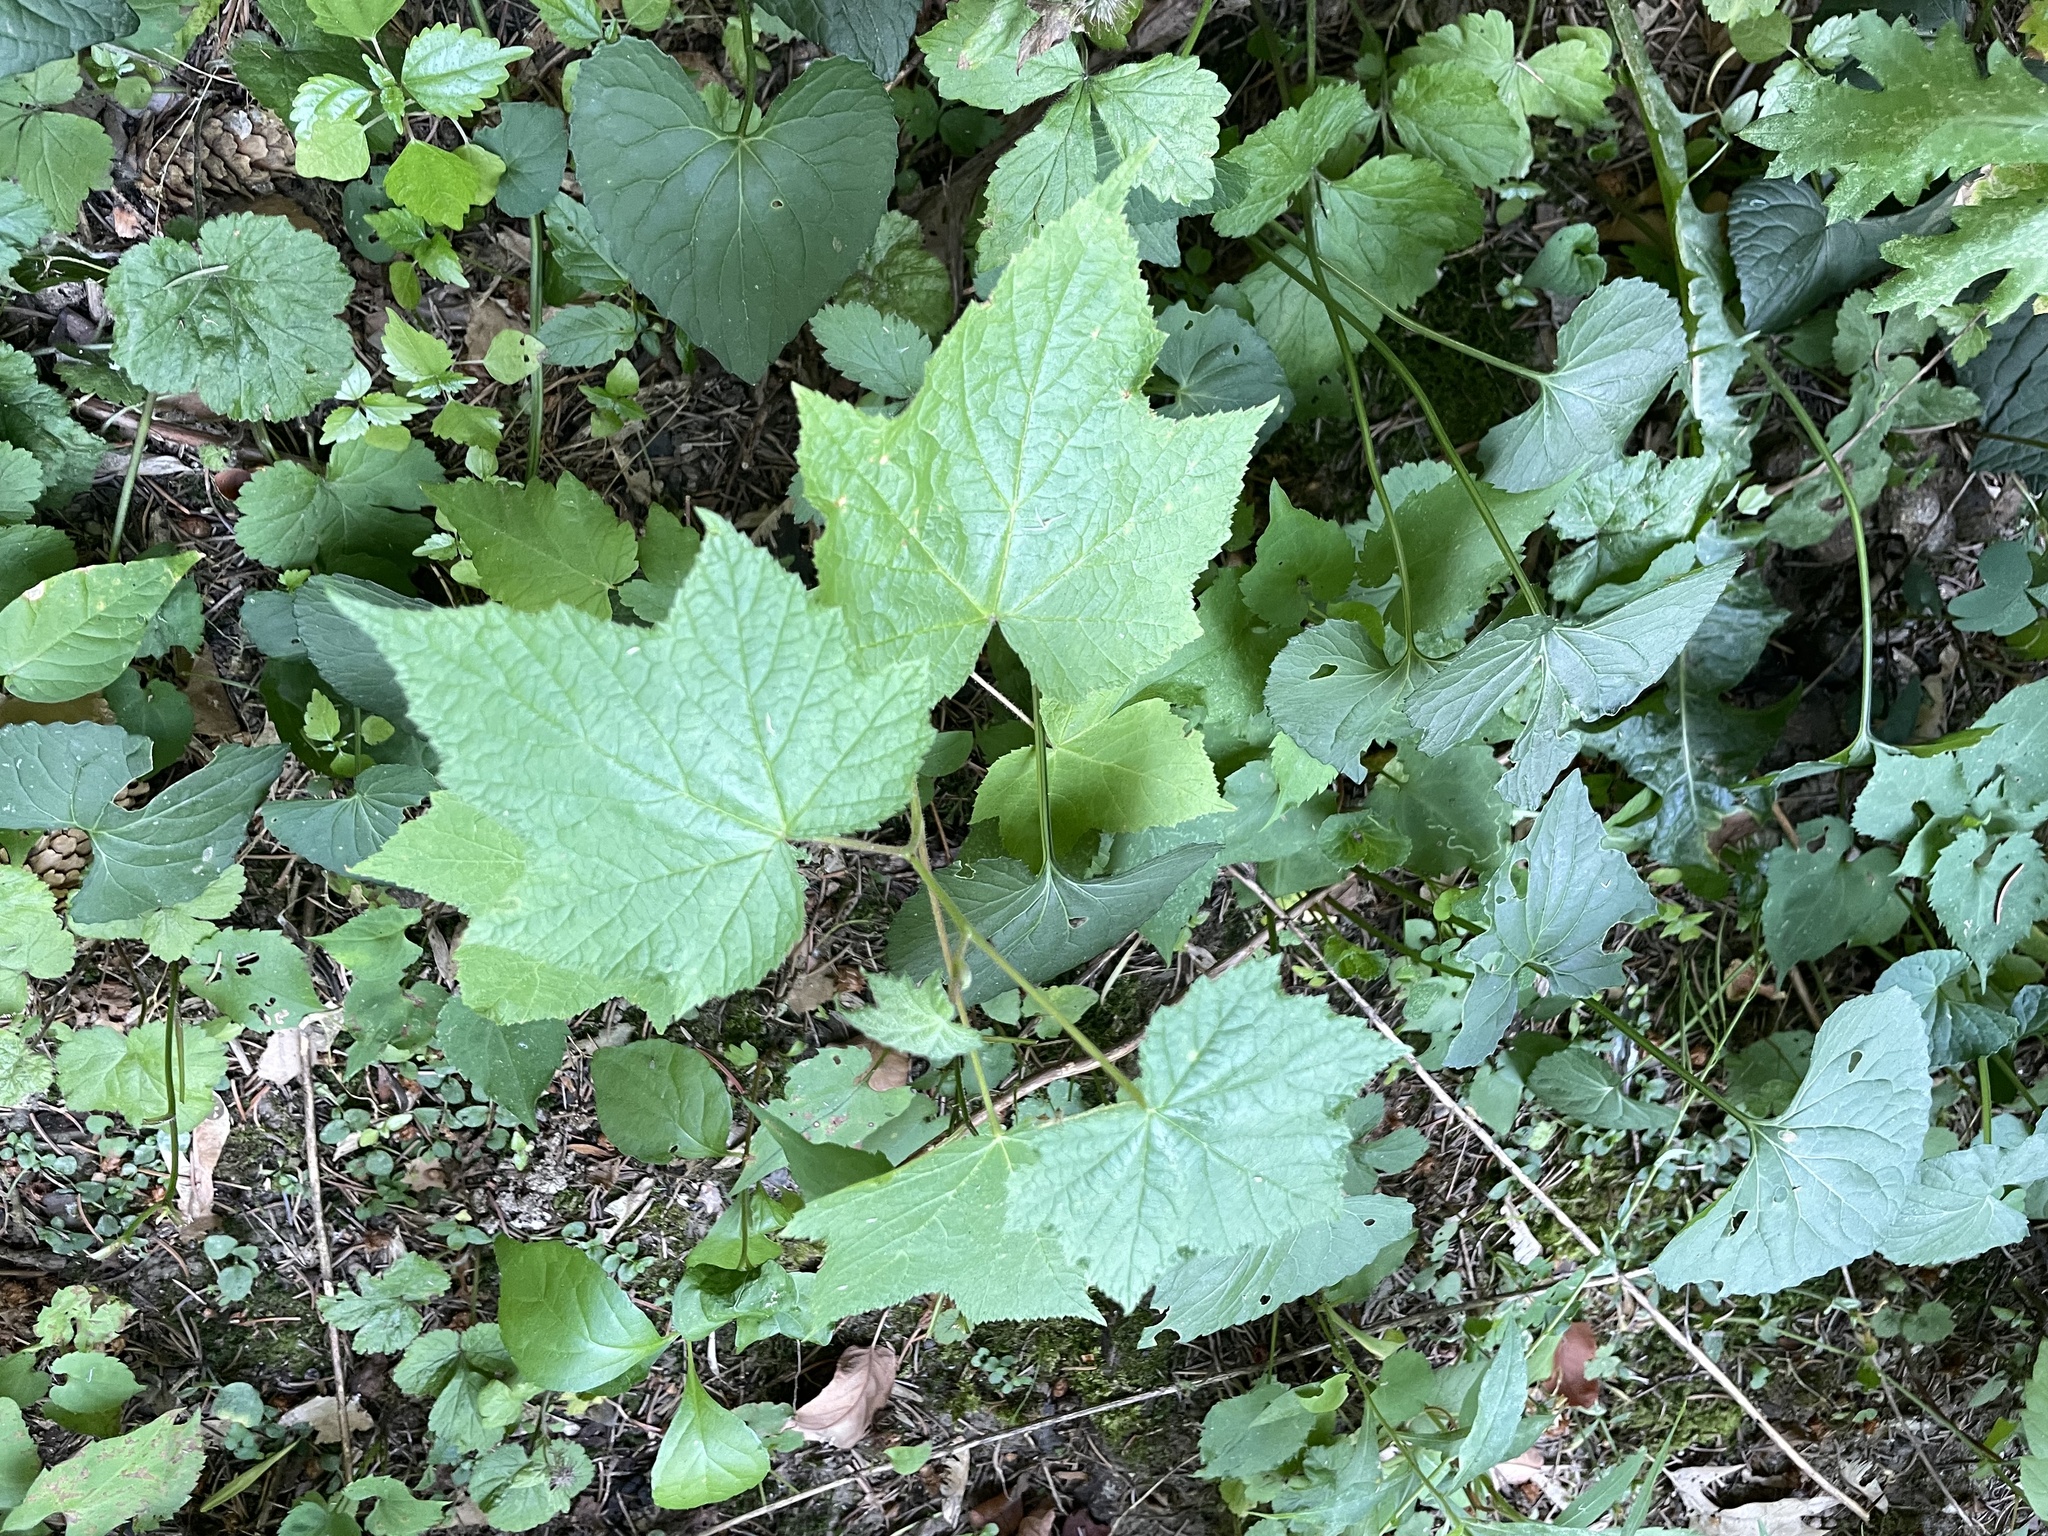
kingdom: Plantae
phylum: Tracheophyta
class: Magnoliopsida
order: Rosales
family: Rosaceae
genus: Rubus
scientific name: Rubus odoratus
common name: Purple-flowered raspberry
